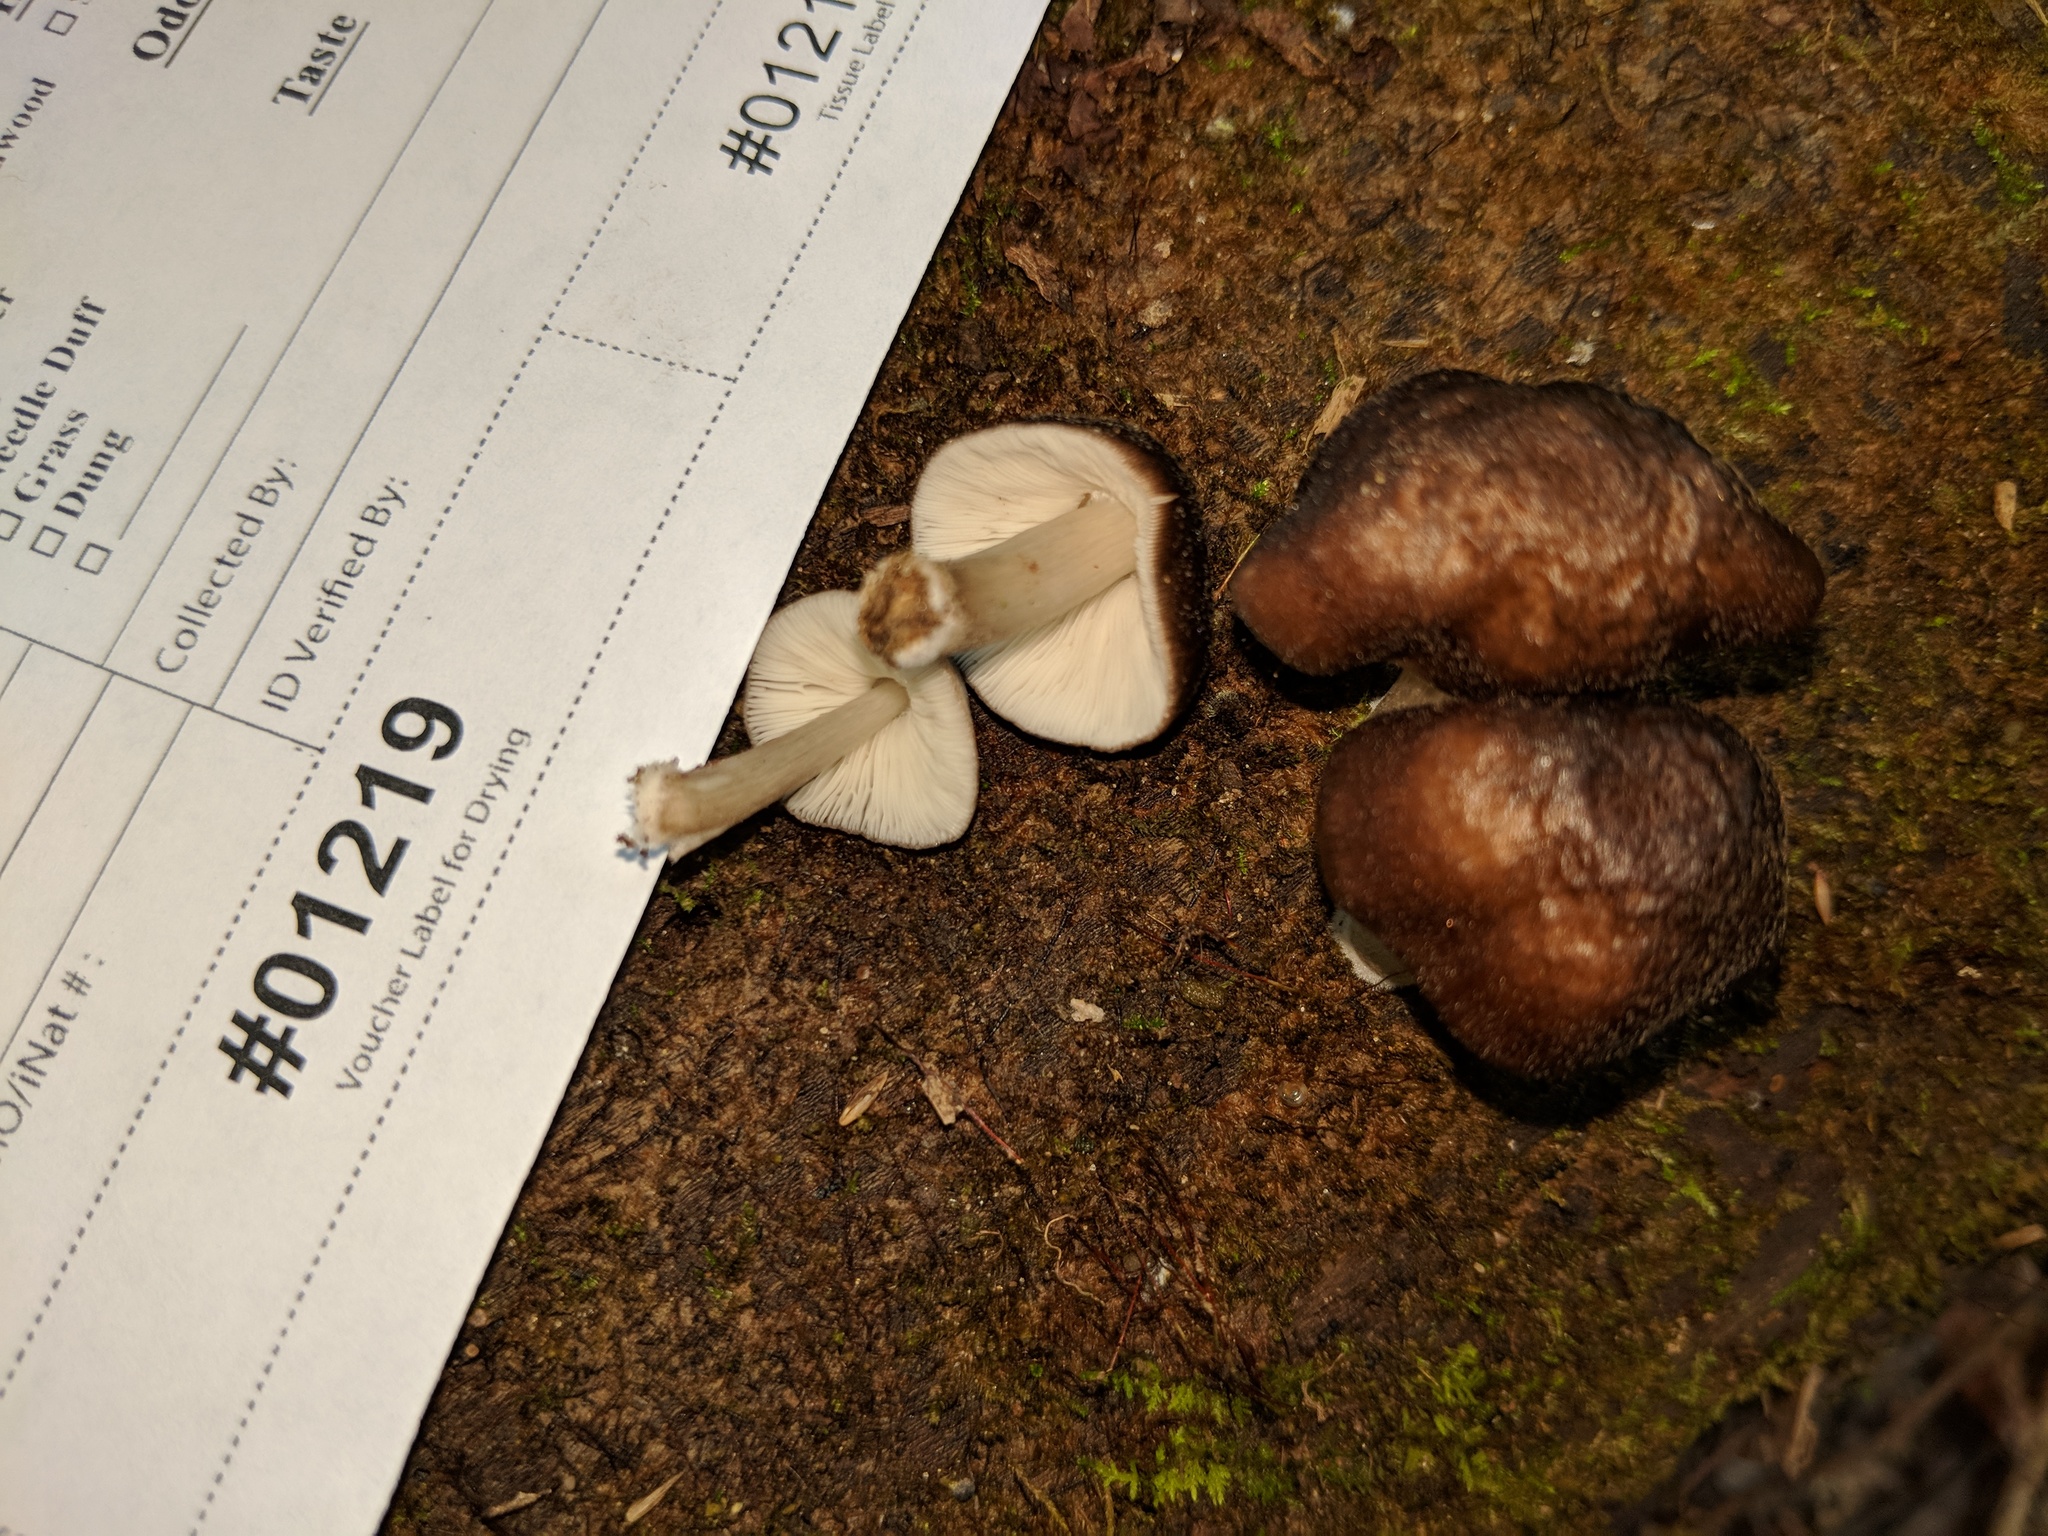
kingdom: Fungi
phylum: Basidiomycota
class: Agaricomycetes
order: Agaricales
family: Pluteaceae
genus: Pluteus
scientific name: Pluteus septocystidiatus
